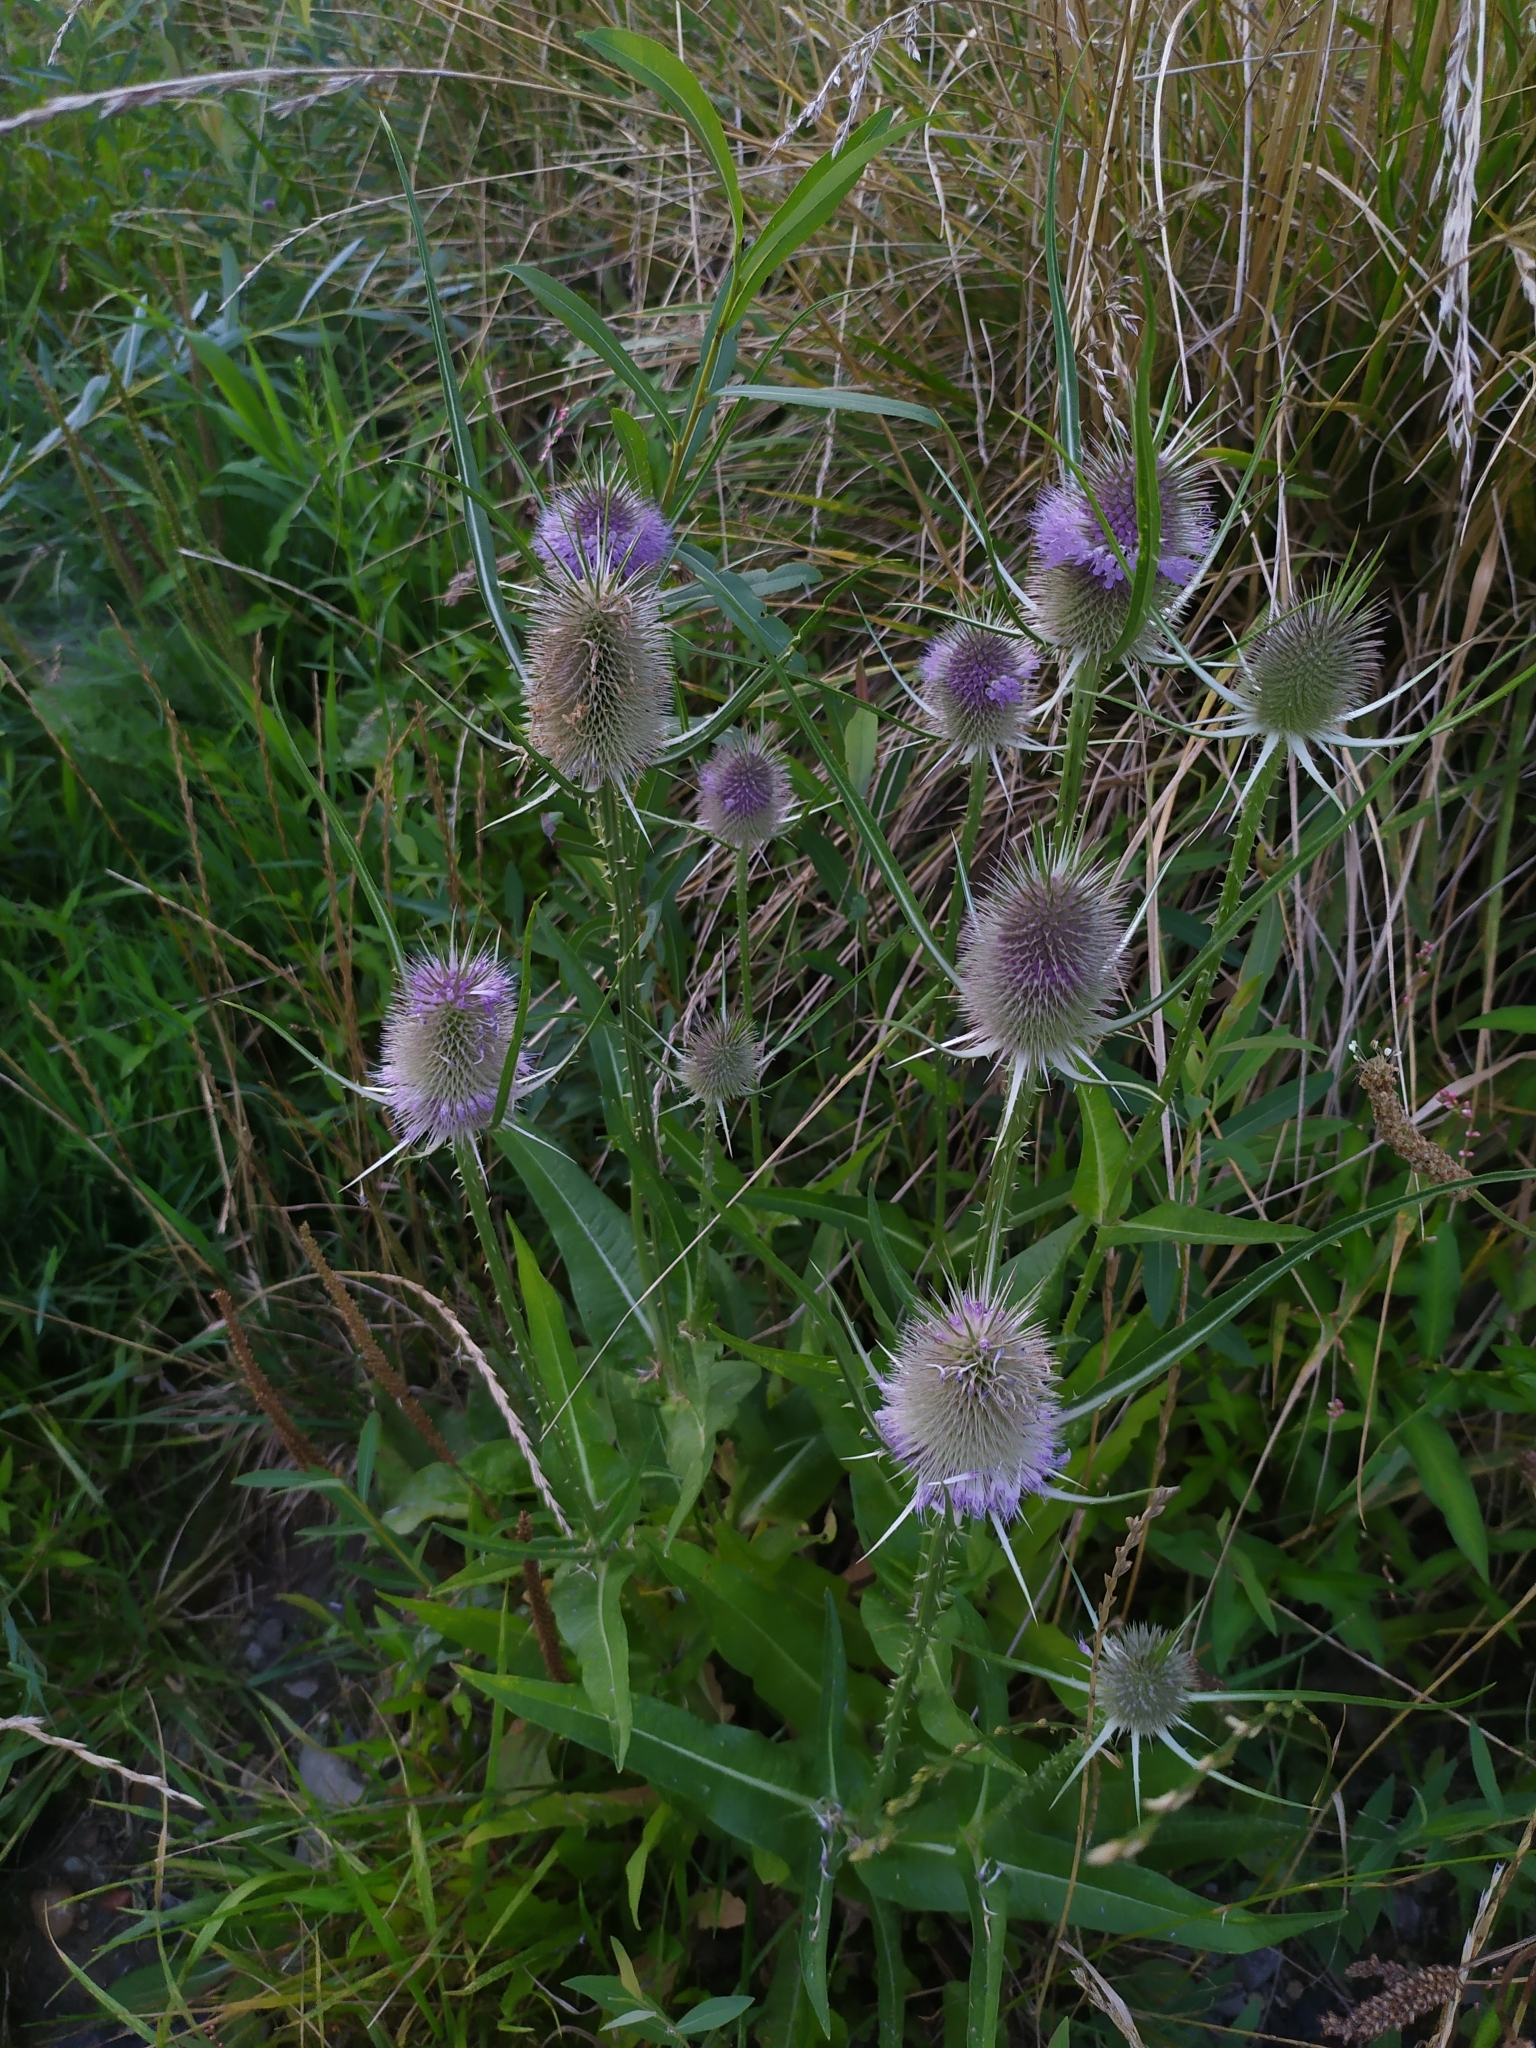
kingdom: Plantae
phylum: Tracheophyta
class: Magnoliopsida
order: Dipsacales
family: Caprifoliaceae
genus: Dipsacus
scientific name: Dipsacus fullonum
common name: Teasel
